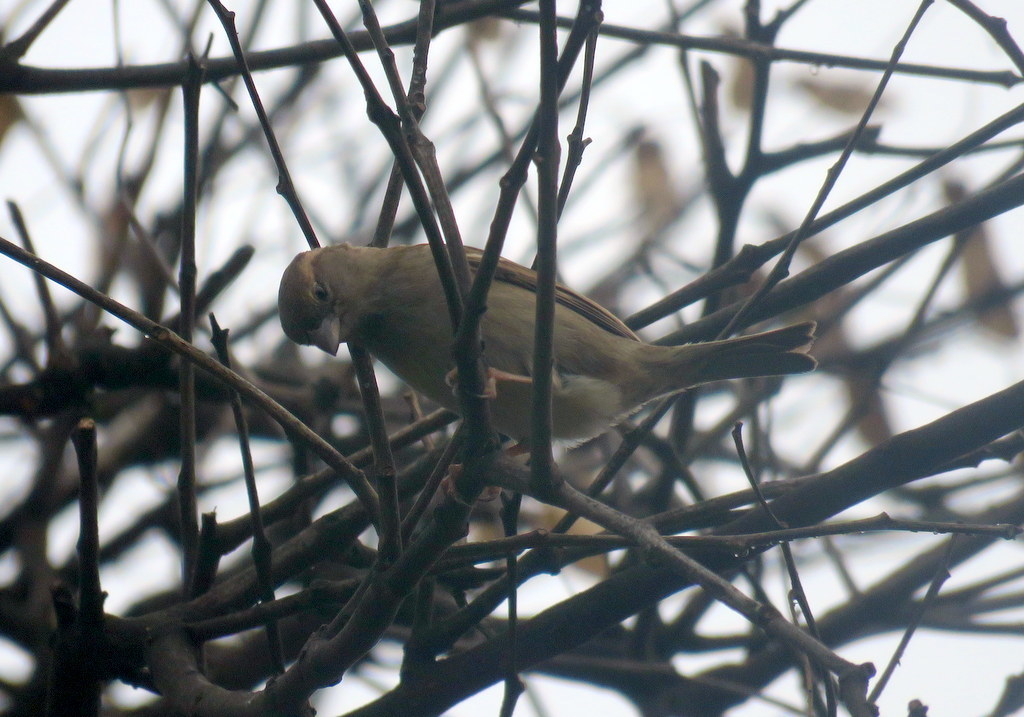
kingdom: Animalia
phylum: Chordata
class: Aves
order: Passeriformes
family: Passeridae
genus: Passer
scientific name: Passer domesticus
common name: House sparrow
